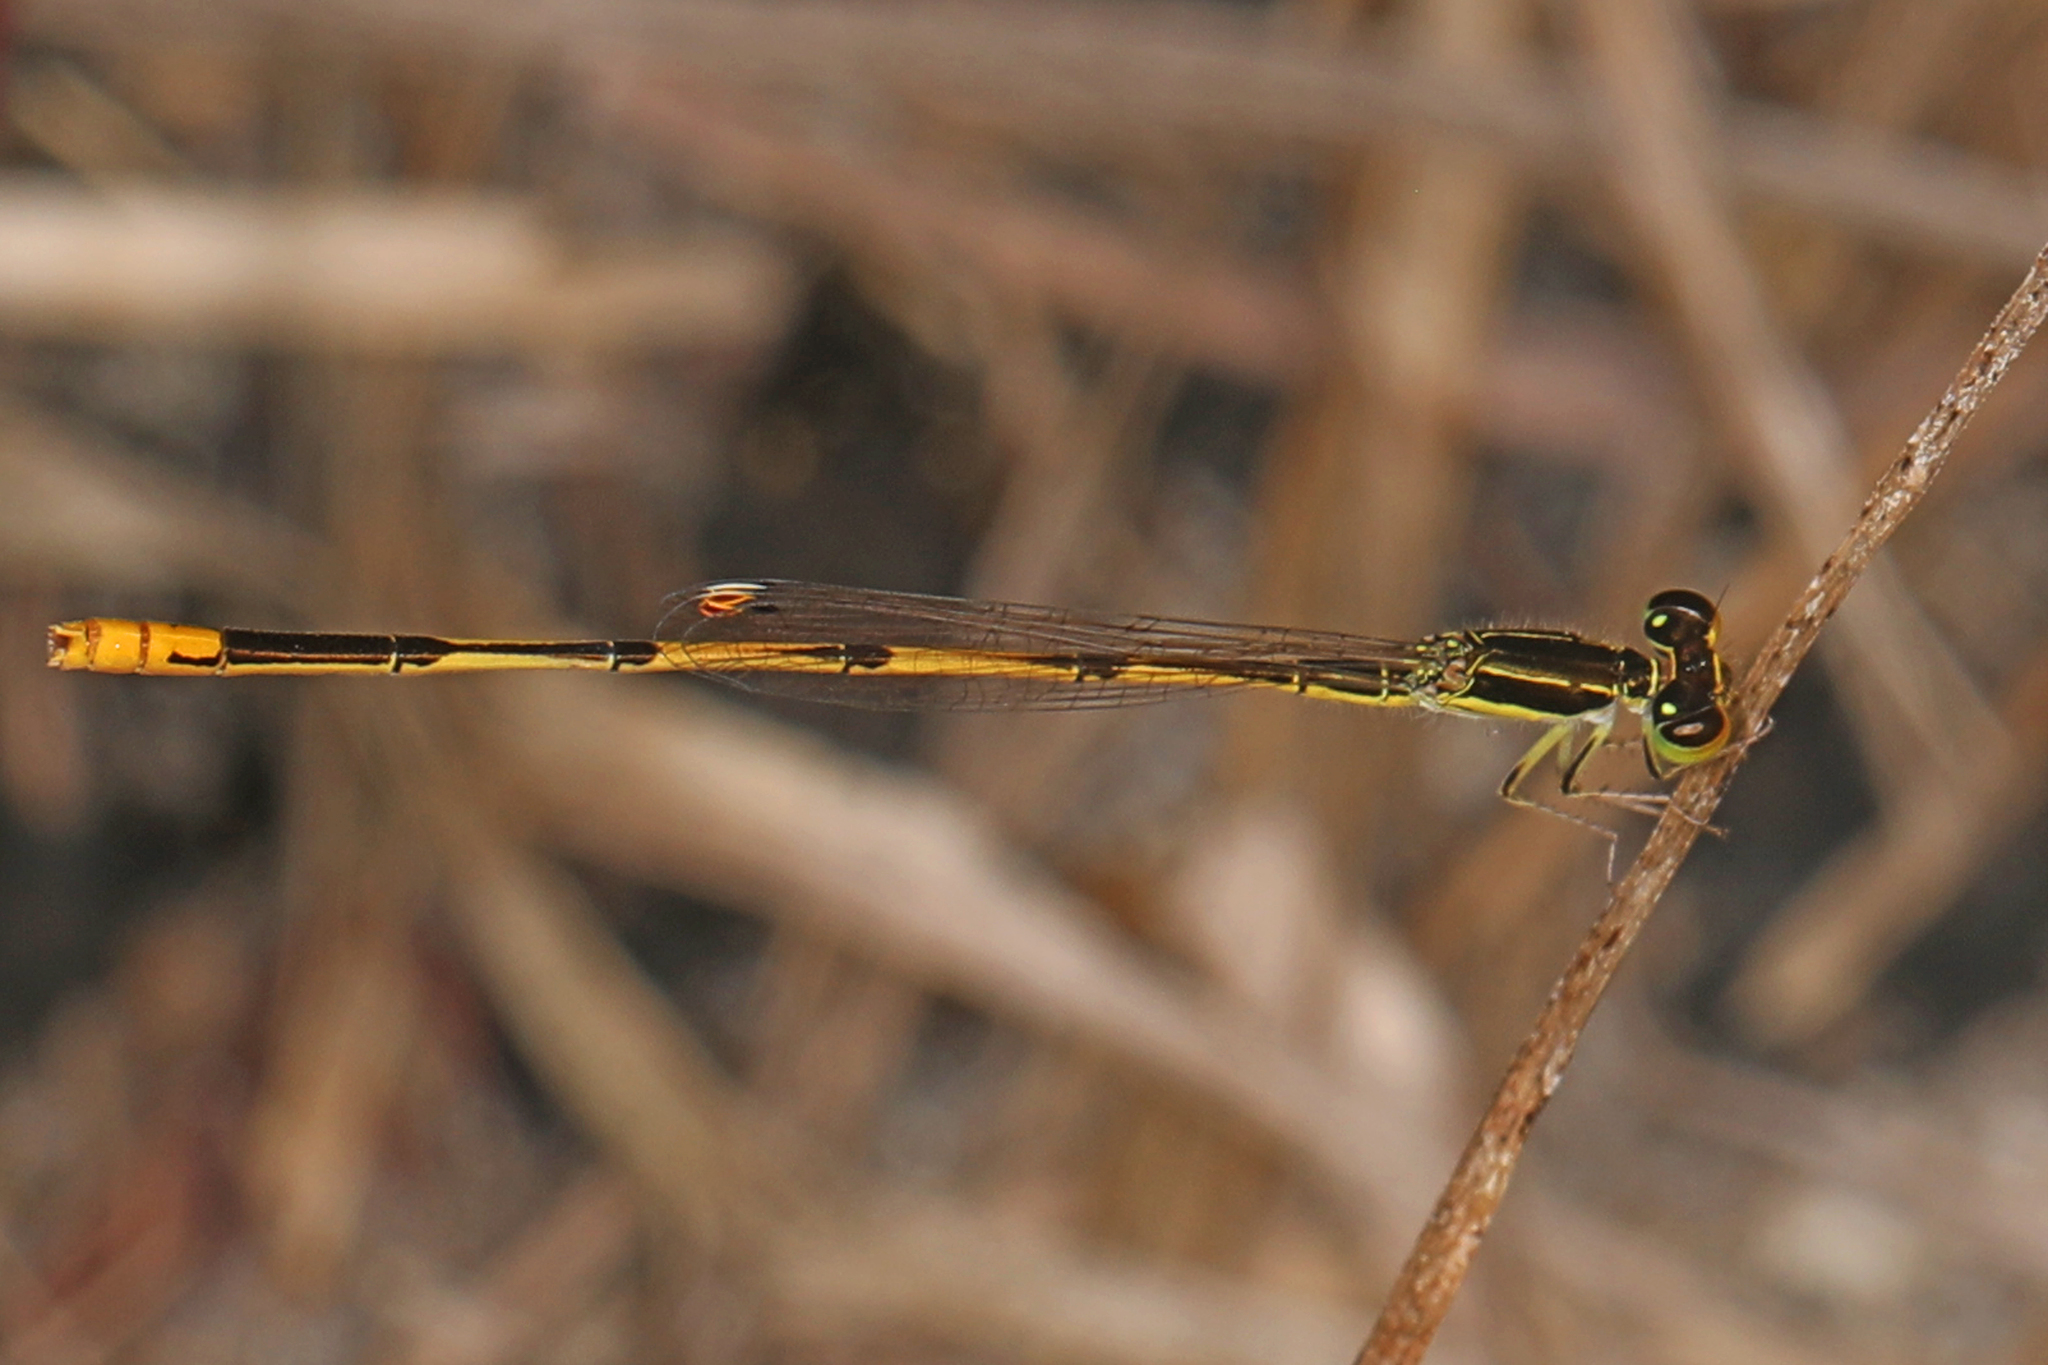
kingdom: Animalia
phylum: Arthropoda
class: Insecta
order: Odonata
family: Coenagrionidae
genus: Ischnura
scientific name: Ischnura hastata
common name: Citrine forktail
